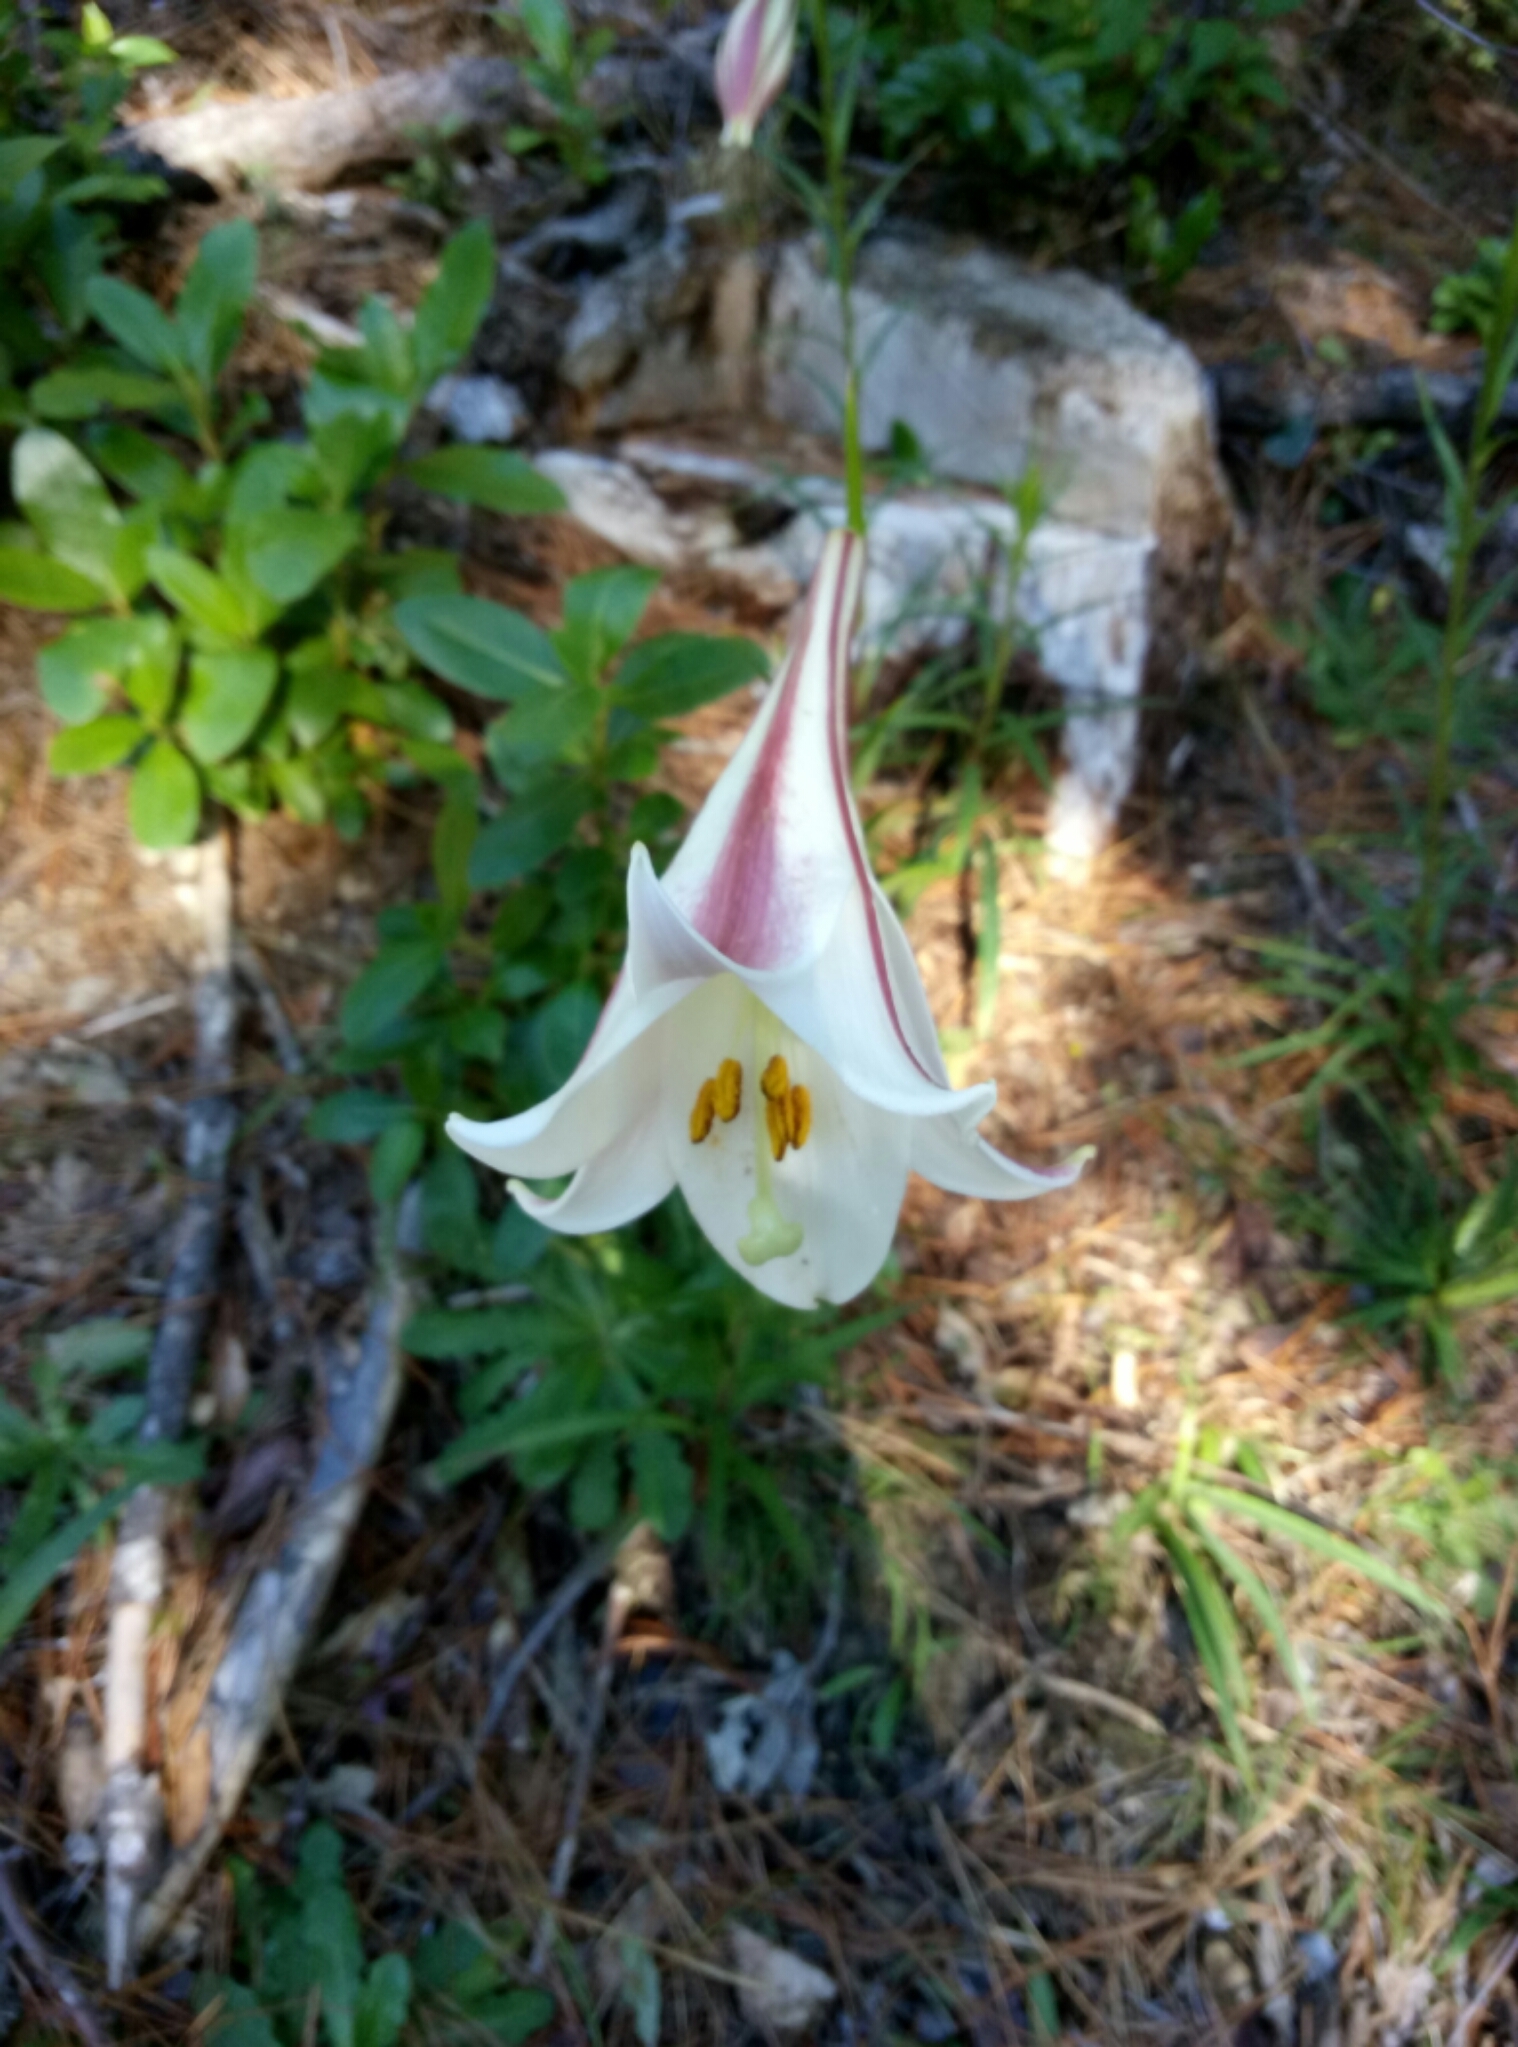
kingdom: Plantae
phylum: Tracheophyta
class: Liliopsida
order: Liliales
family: Liliaceae
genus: Lilium
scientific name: Lilium formosanum
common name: Formosa lily
